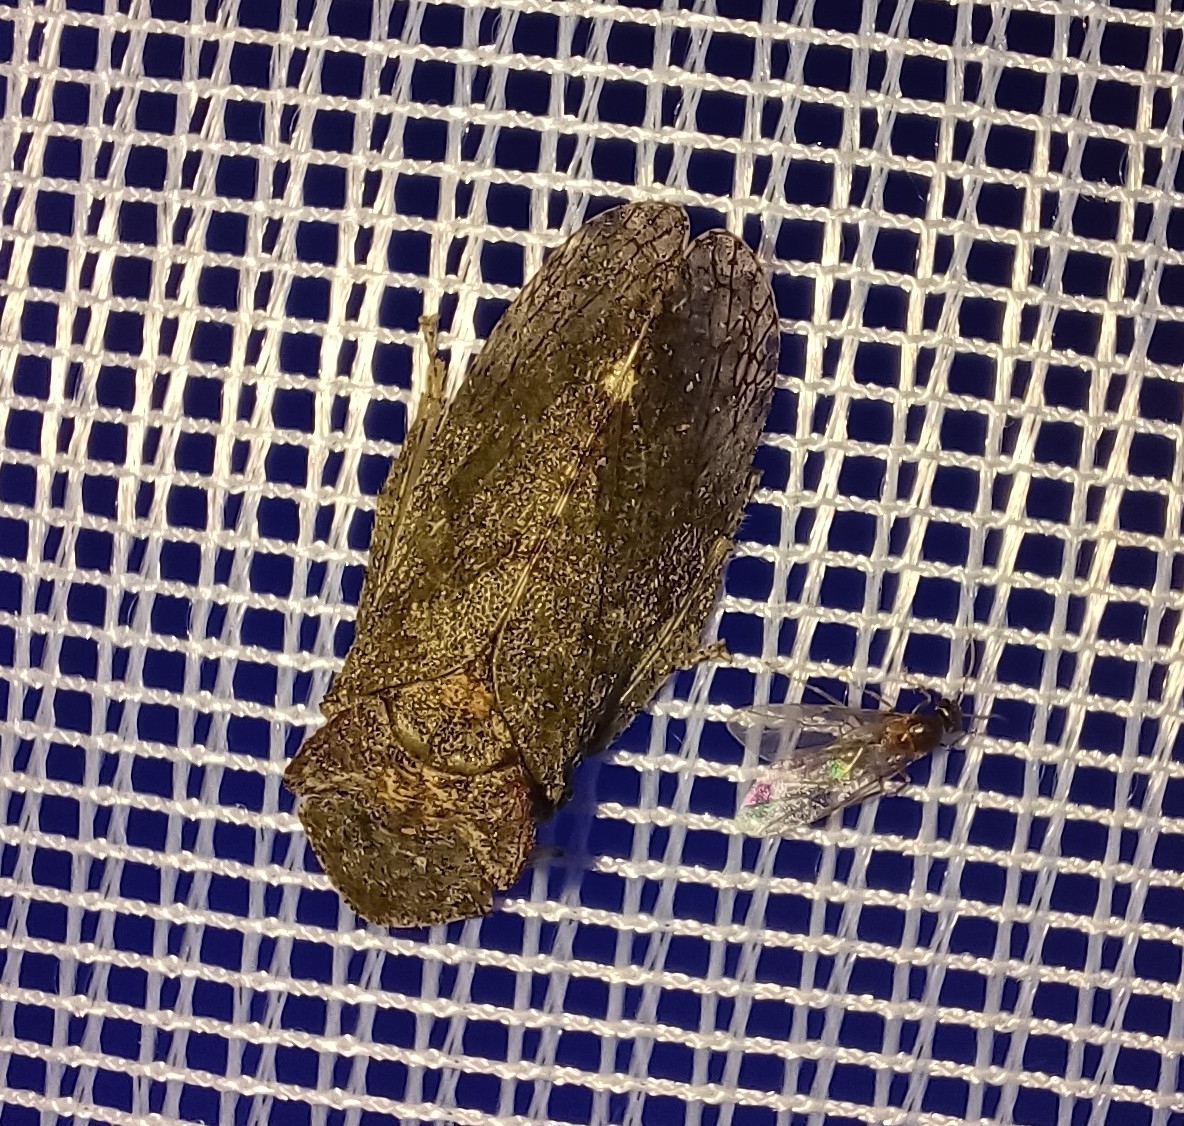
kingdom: Animalia
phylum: Arthropoda
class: Insecta
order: Hemiptera
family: Cicadellidae
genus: Ledra
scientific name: Ledra aurita
